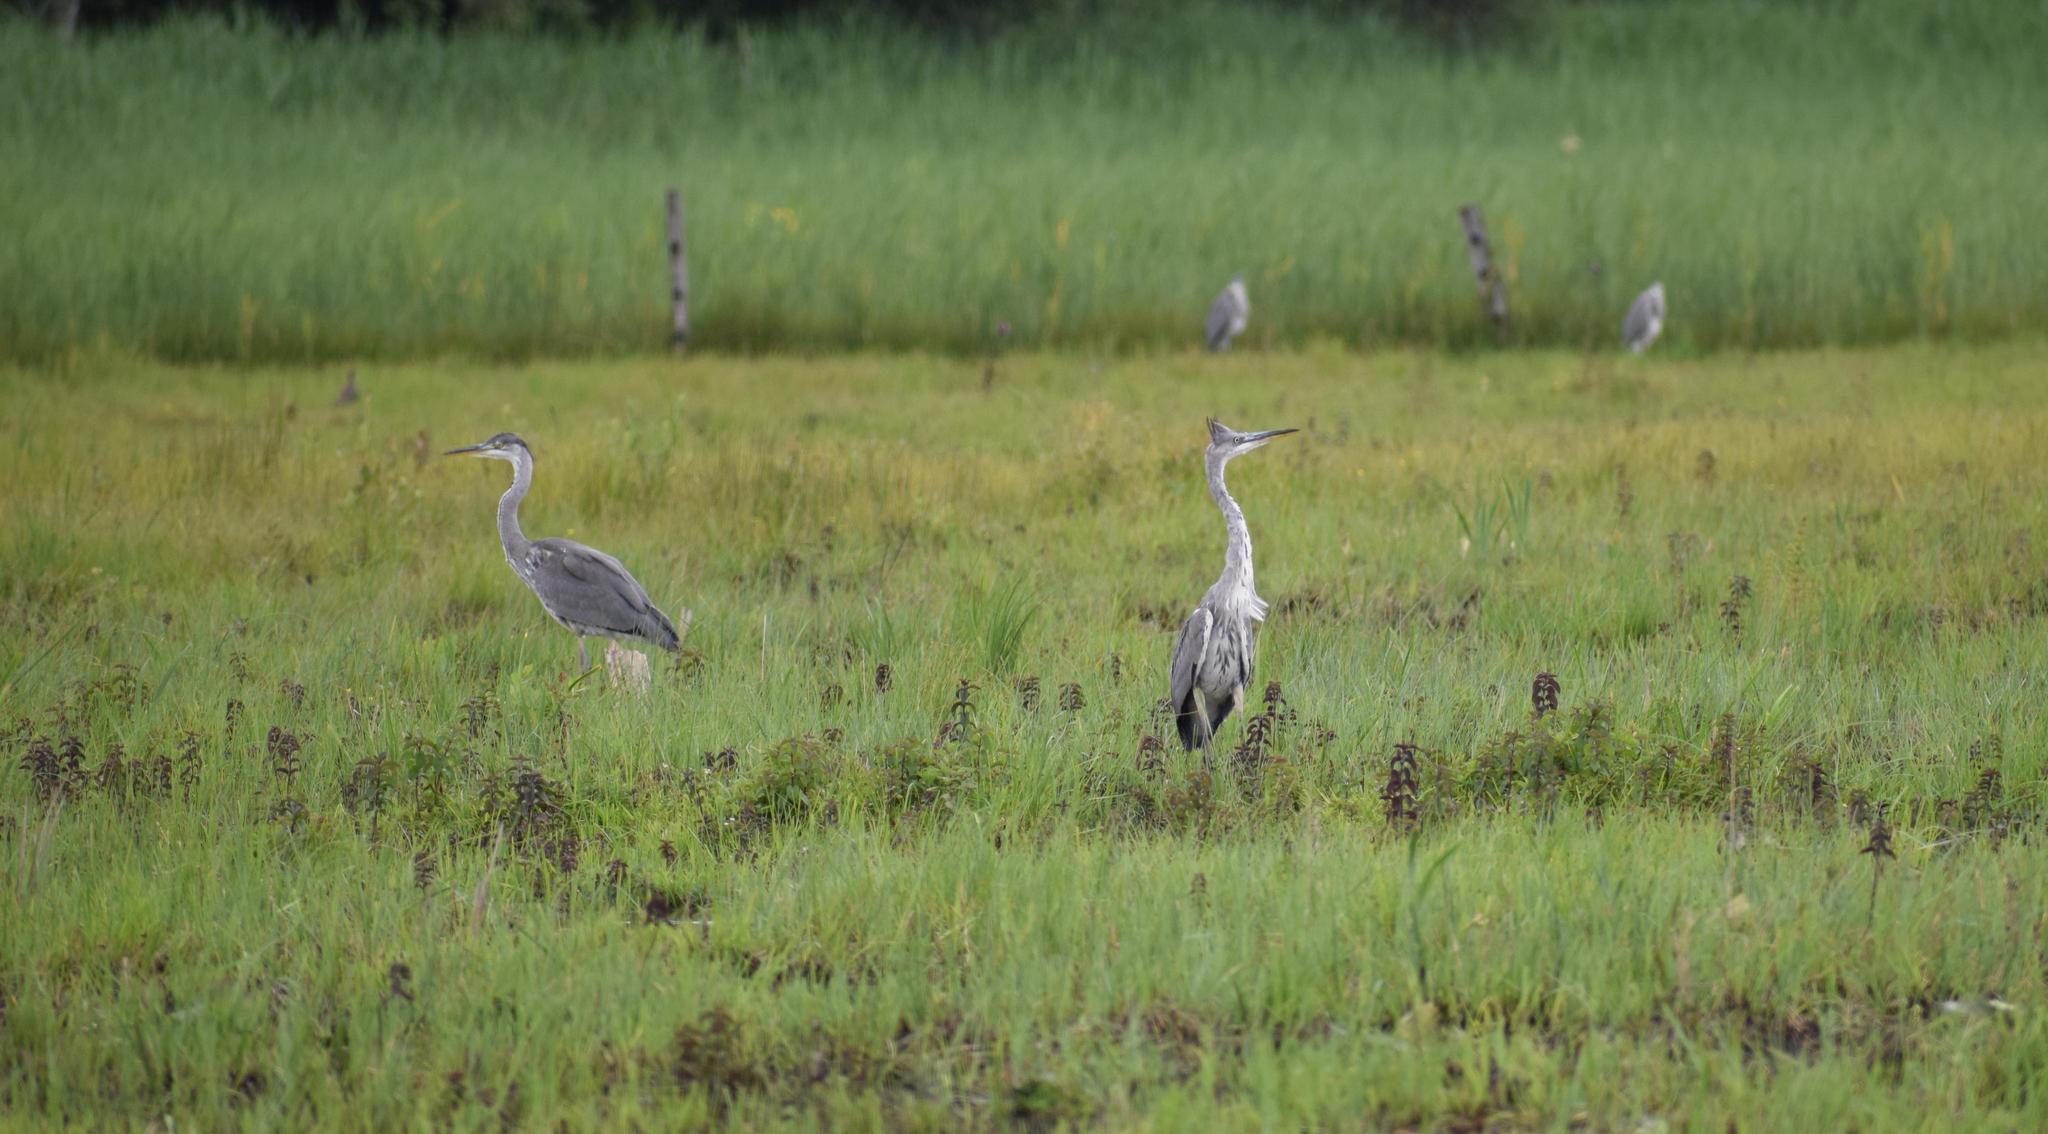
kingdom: Animalia
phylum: Chordata
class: Aves
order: Charadriiformes
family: Charadriidae
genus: Vanellus
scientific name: Vanellus vanellus
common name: Northern lapwing
